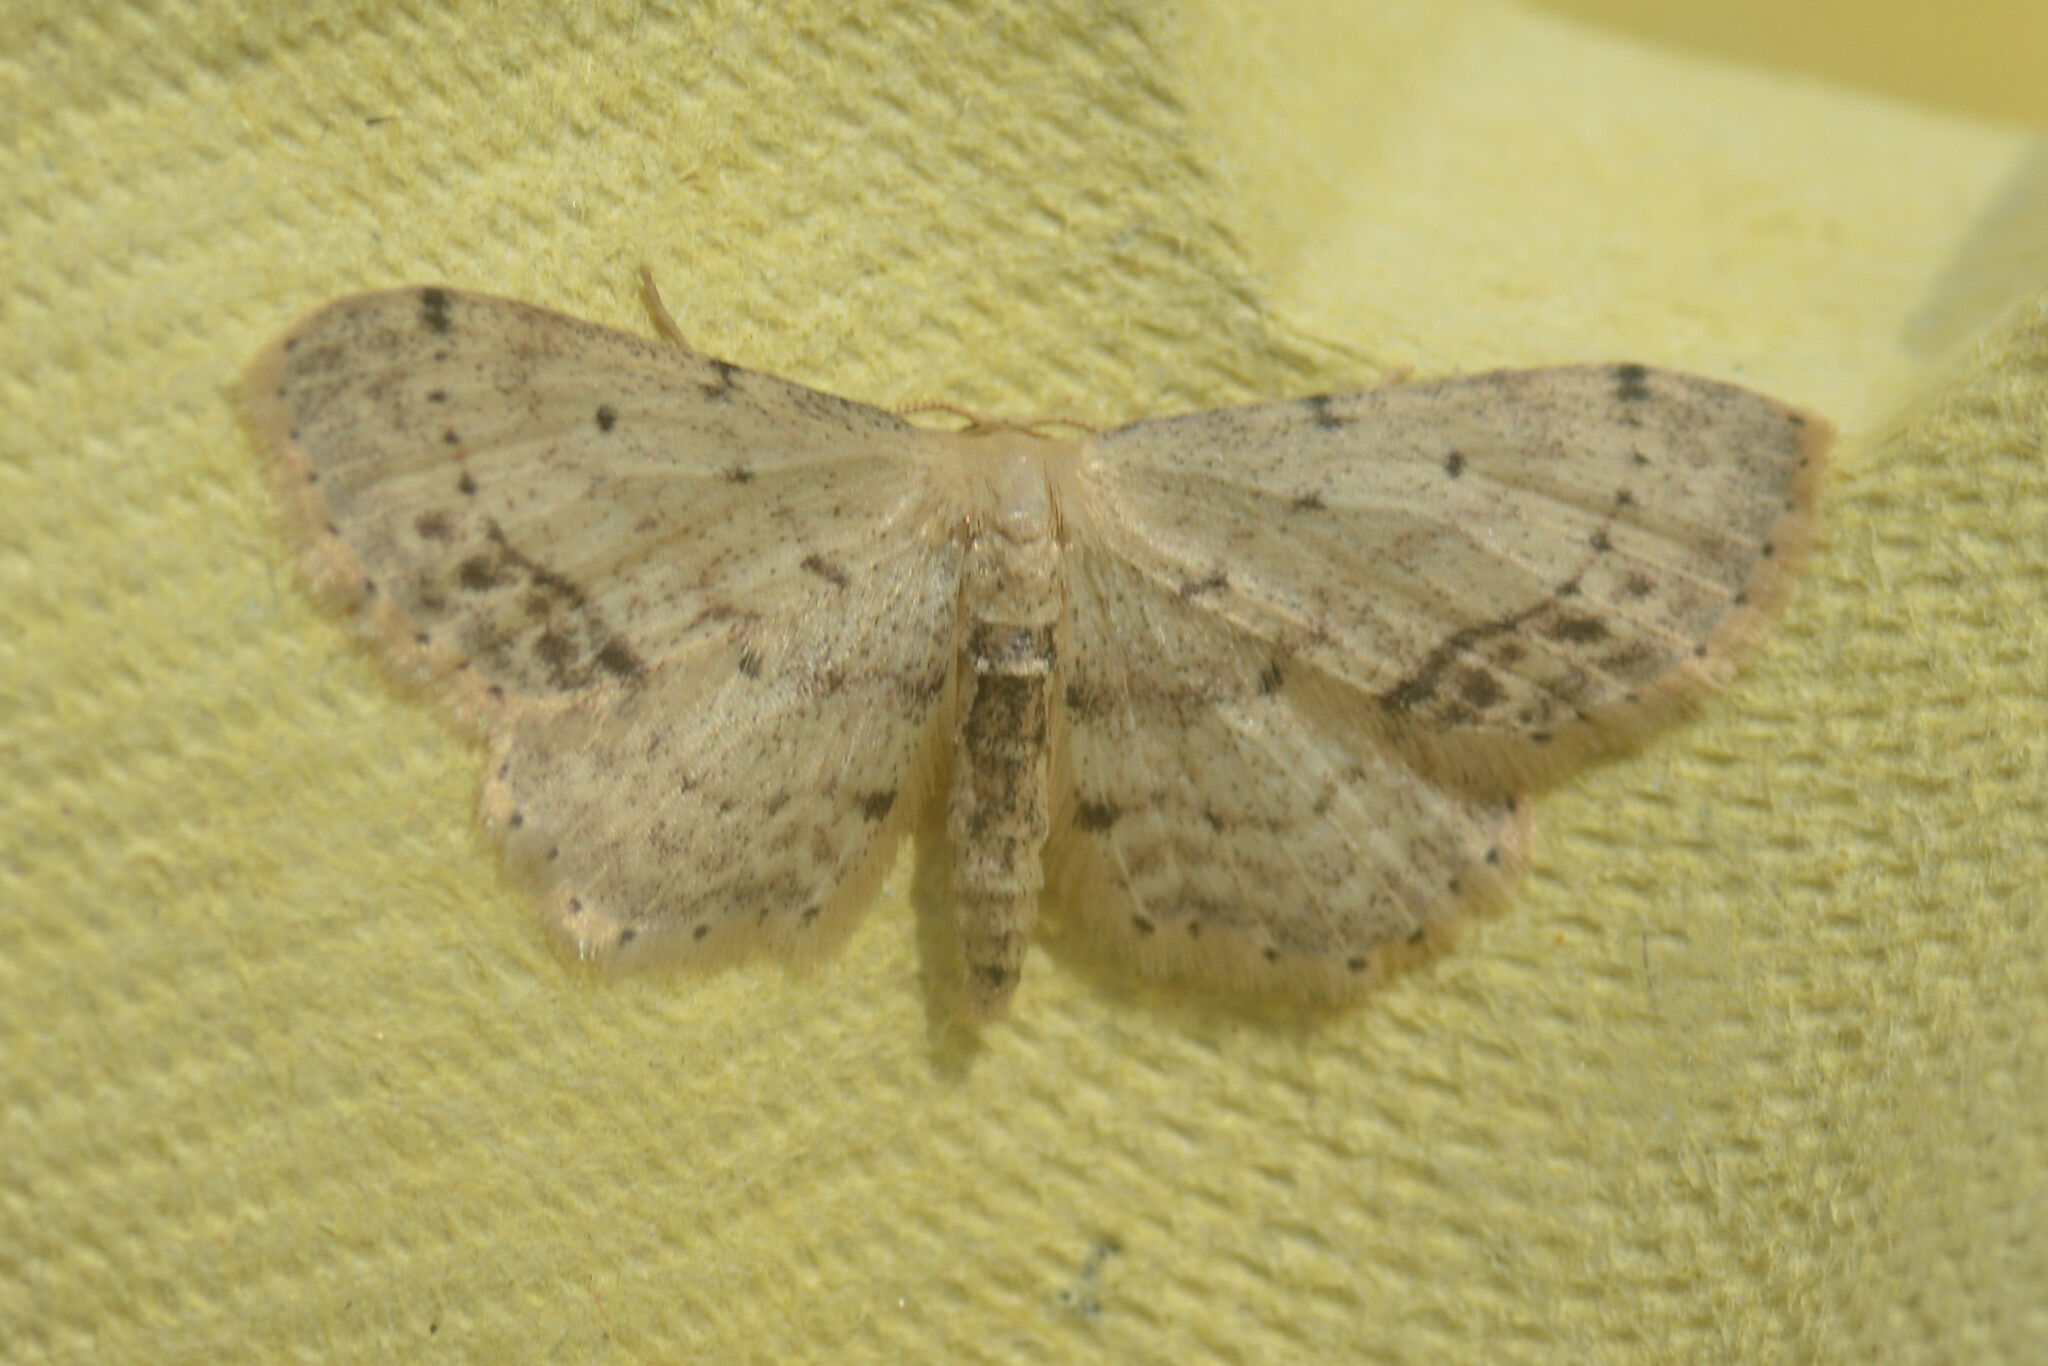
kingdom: Animalia
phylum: Arthropoda
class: Insecta
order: Lepidoptera
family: Geometridae
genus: Idaea
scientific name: Idaea dimidiata
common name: Single-dotted wave
